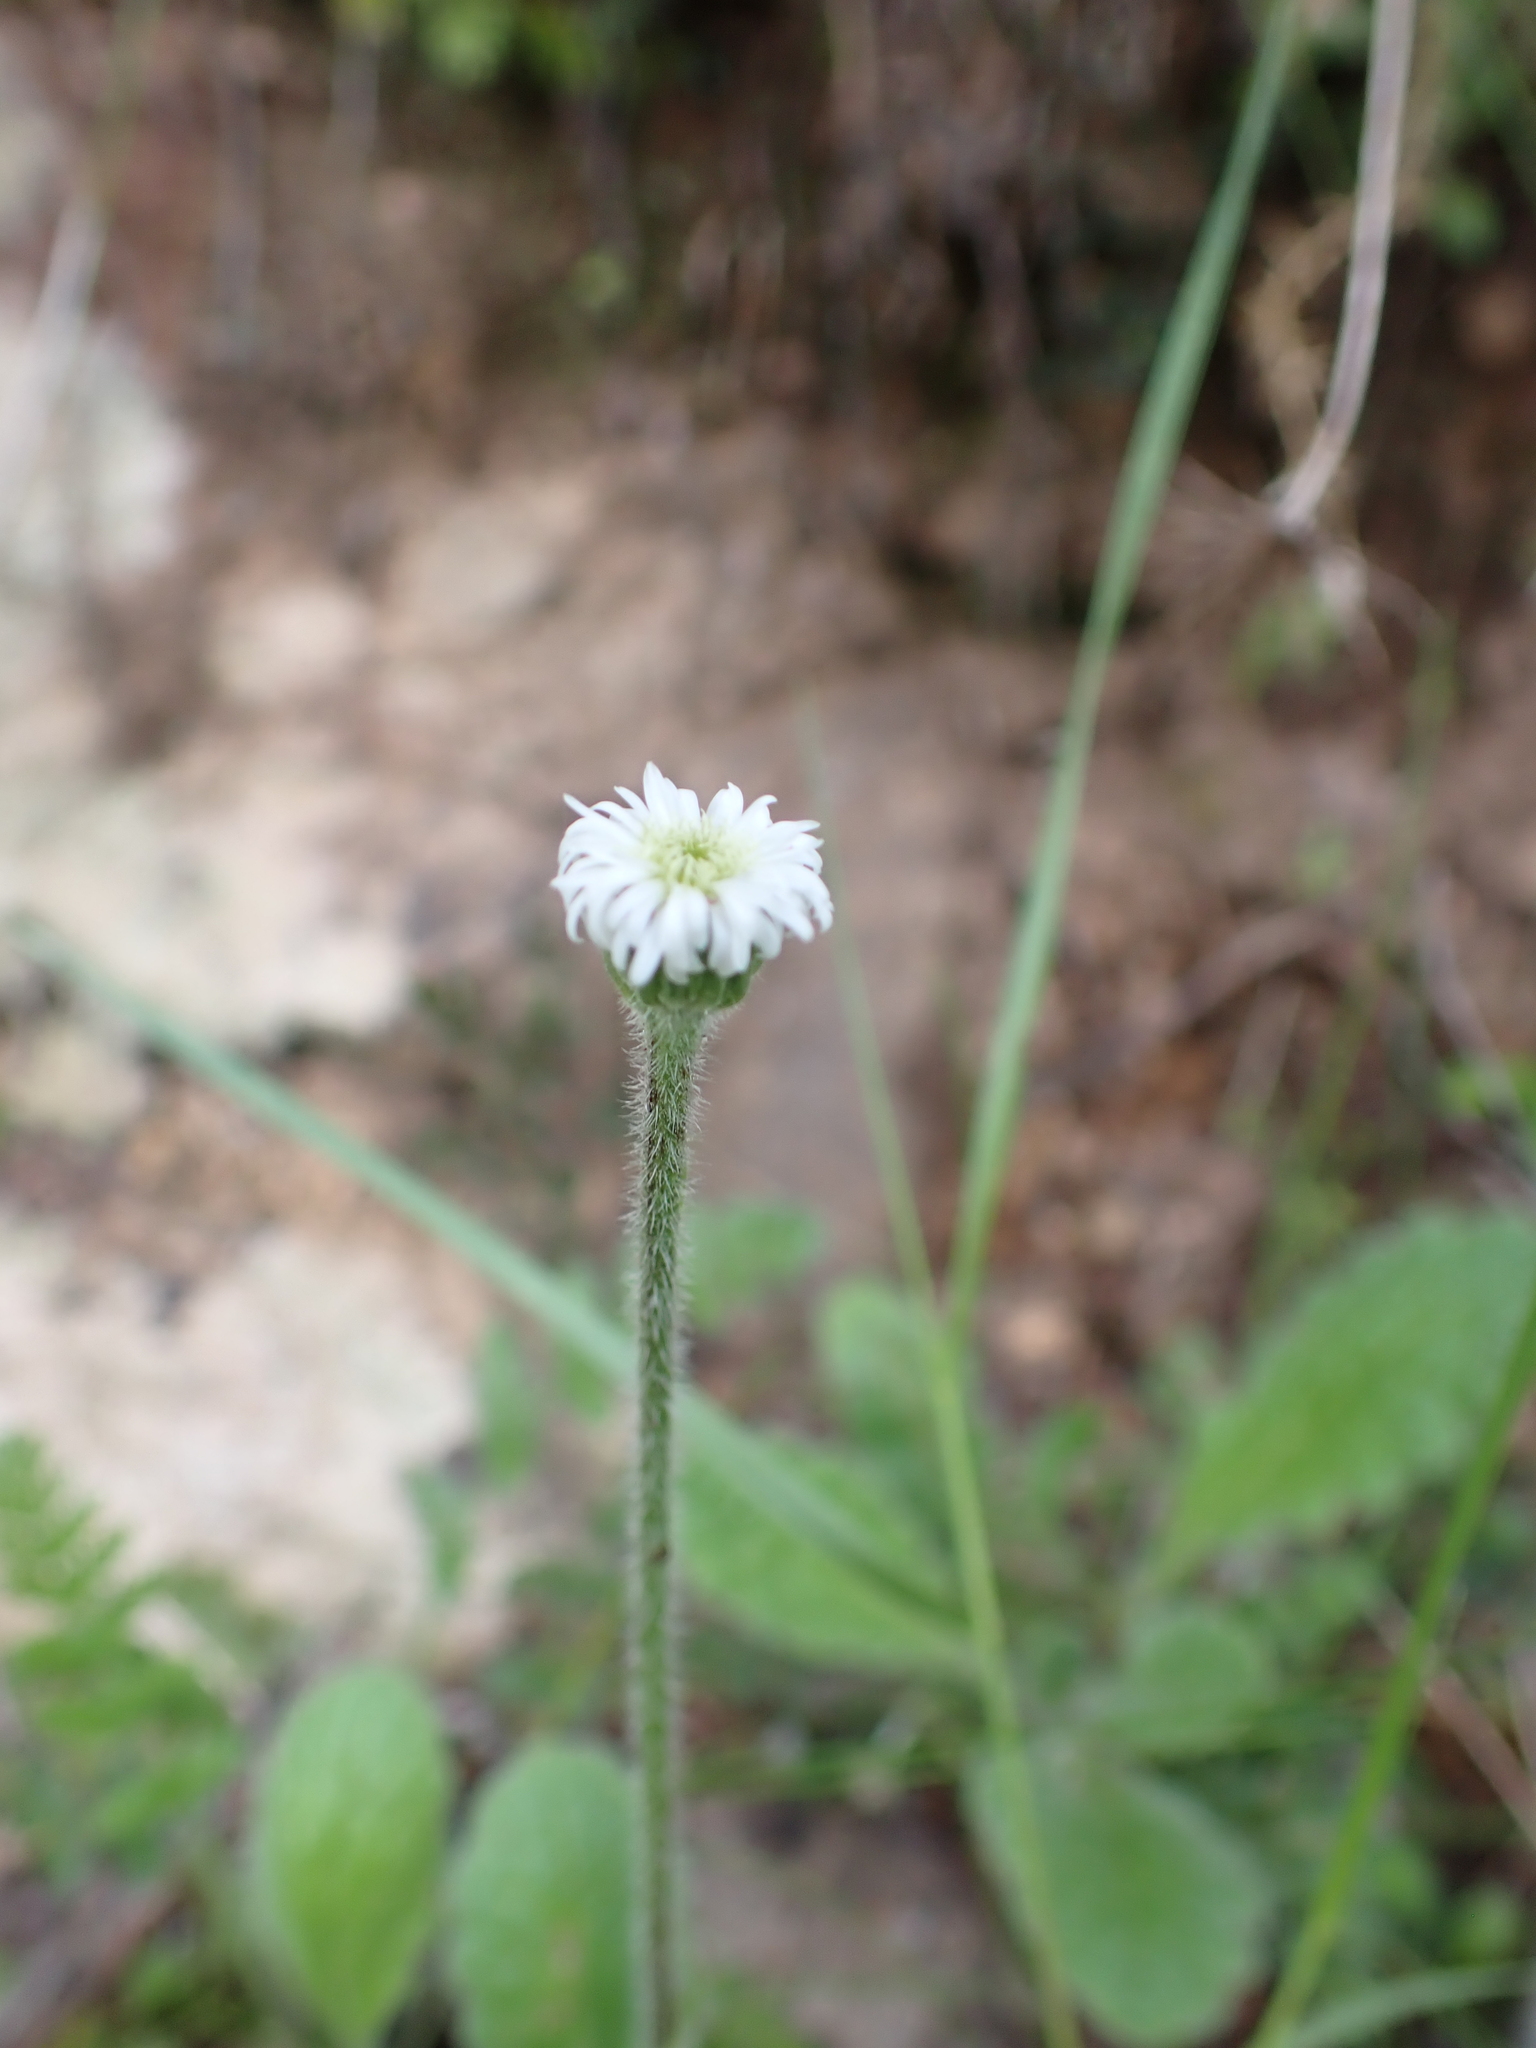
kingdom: Plantae
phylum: Tracheophyta
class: Magnoliopsida
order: Asterales
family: Asteraceae
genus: Lagenophora
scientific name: Lagenophora adenosa
